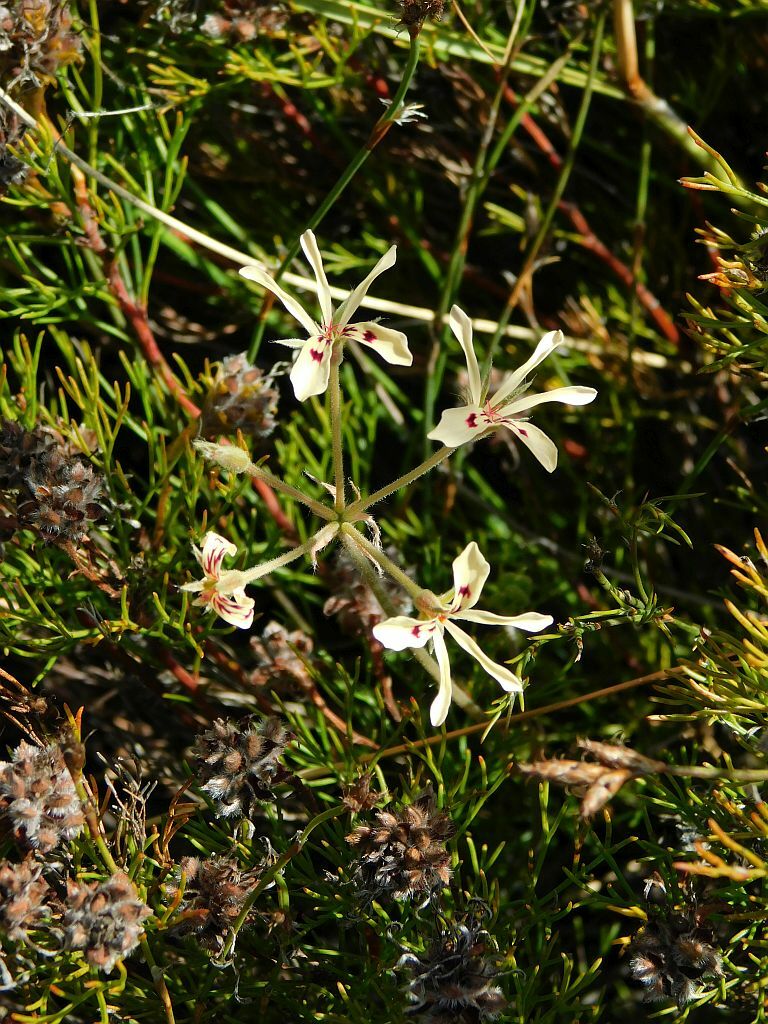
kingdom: Plantae
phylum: Tracheophyta
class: Magnoliopsida
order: Geraniales
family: Geraniaceae
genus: Pelargonium
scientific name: Pelargonium pinnatum
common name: Pinnated pelargonium
